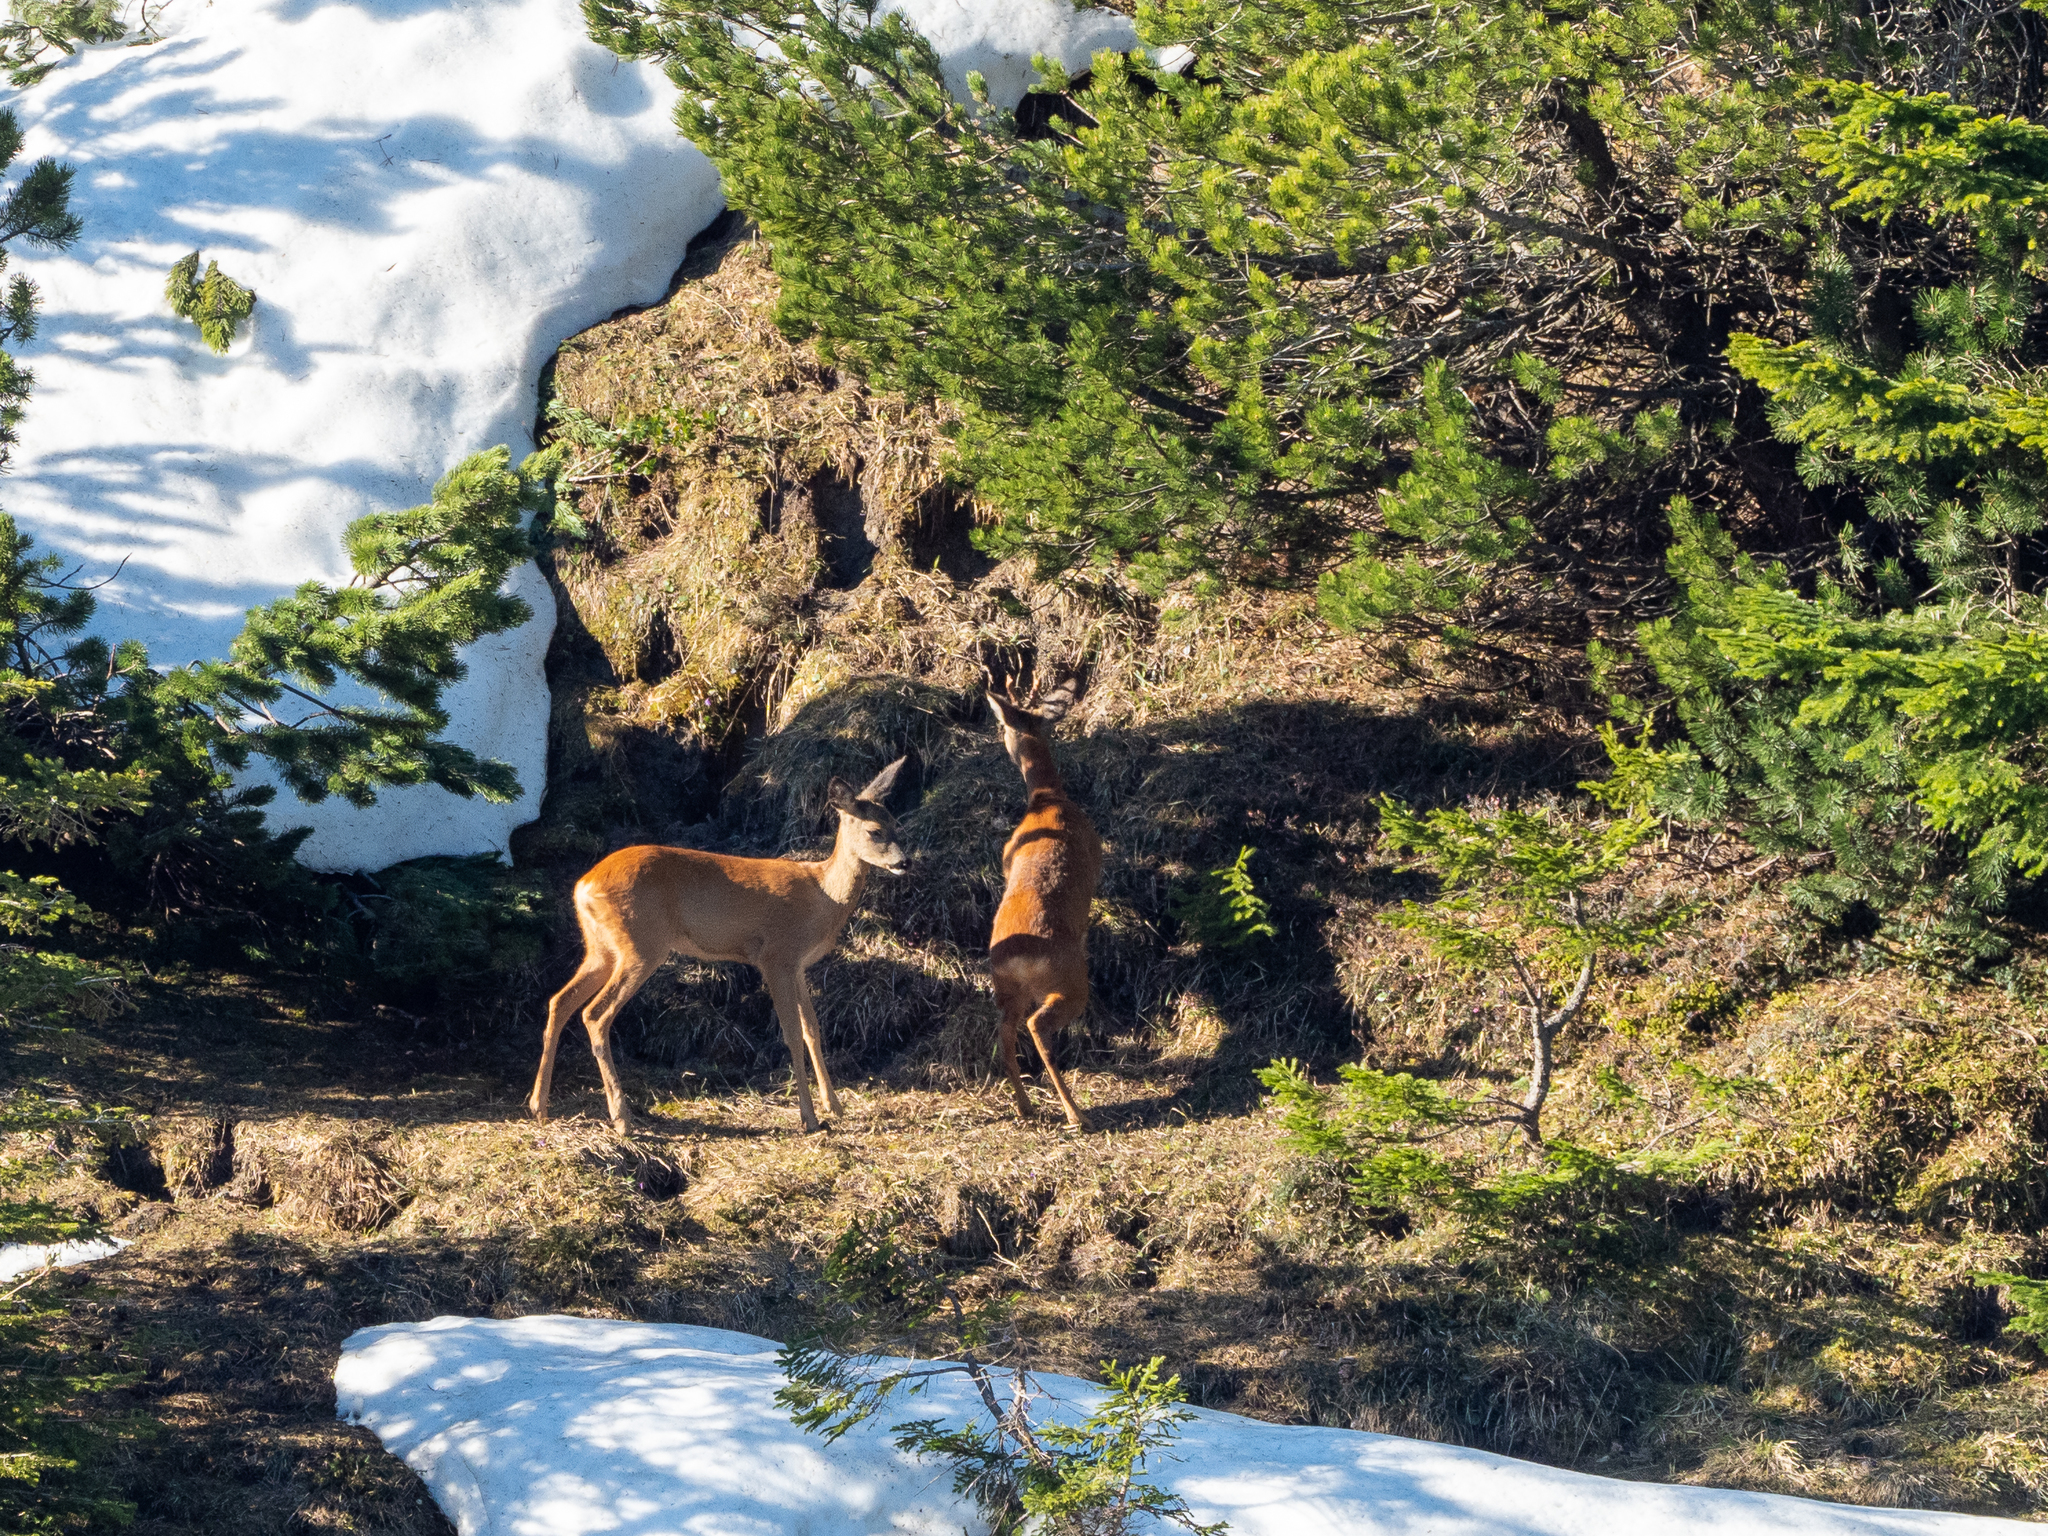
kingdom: Animalia
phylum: Chordata
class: Mammalia
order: Artiodactyla
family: Cervidae
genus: Capreolus
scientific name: Capreolus capreolus
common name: Western roe deer
